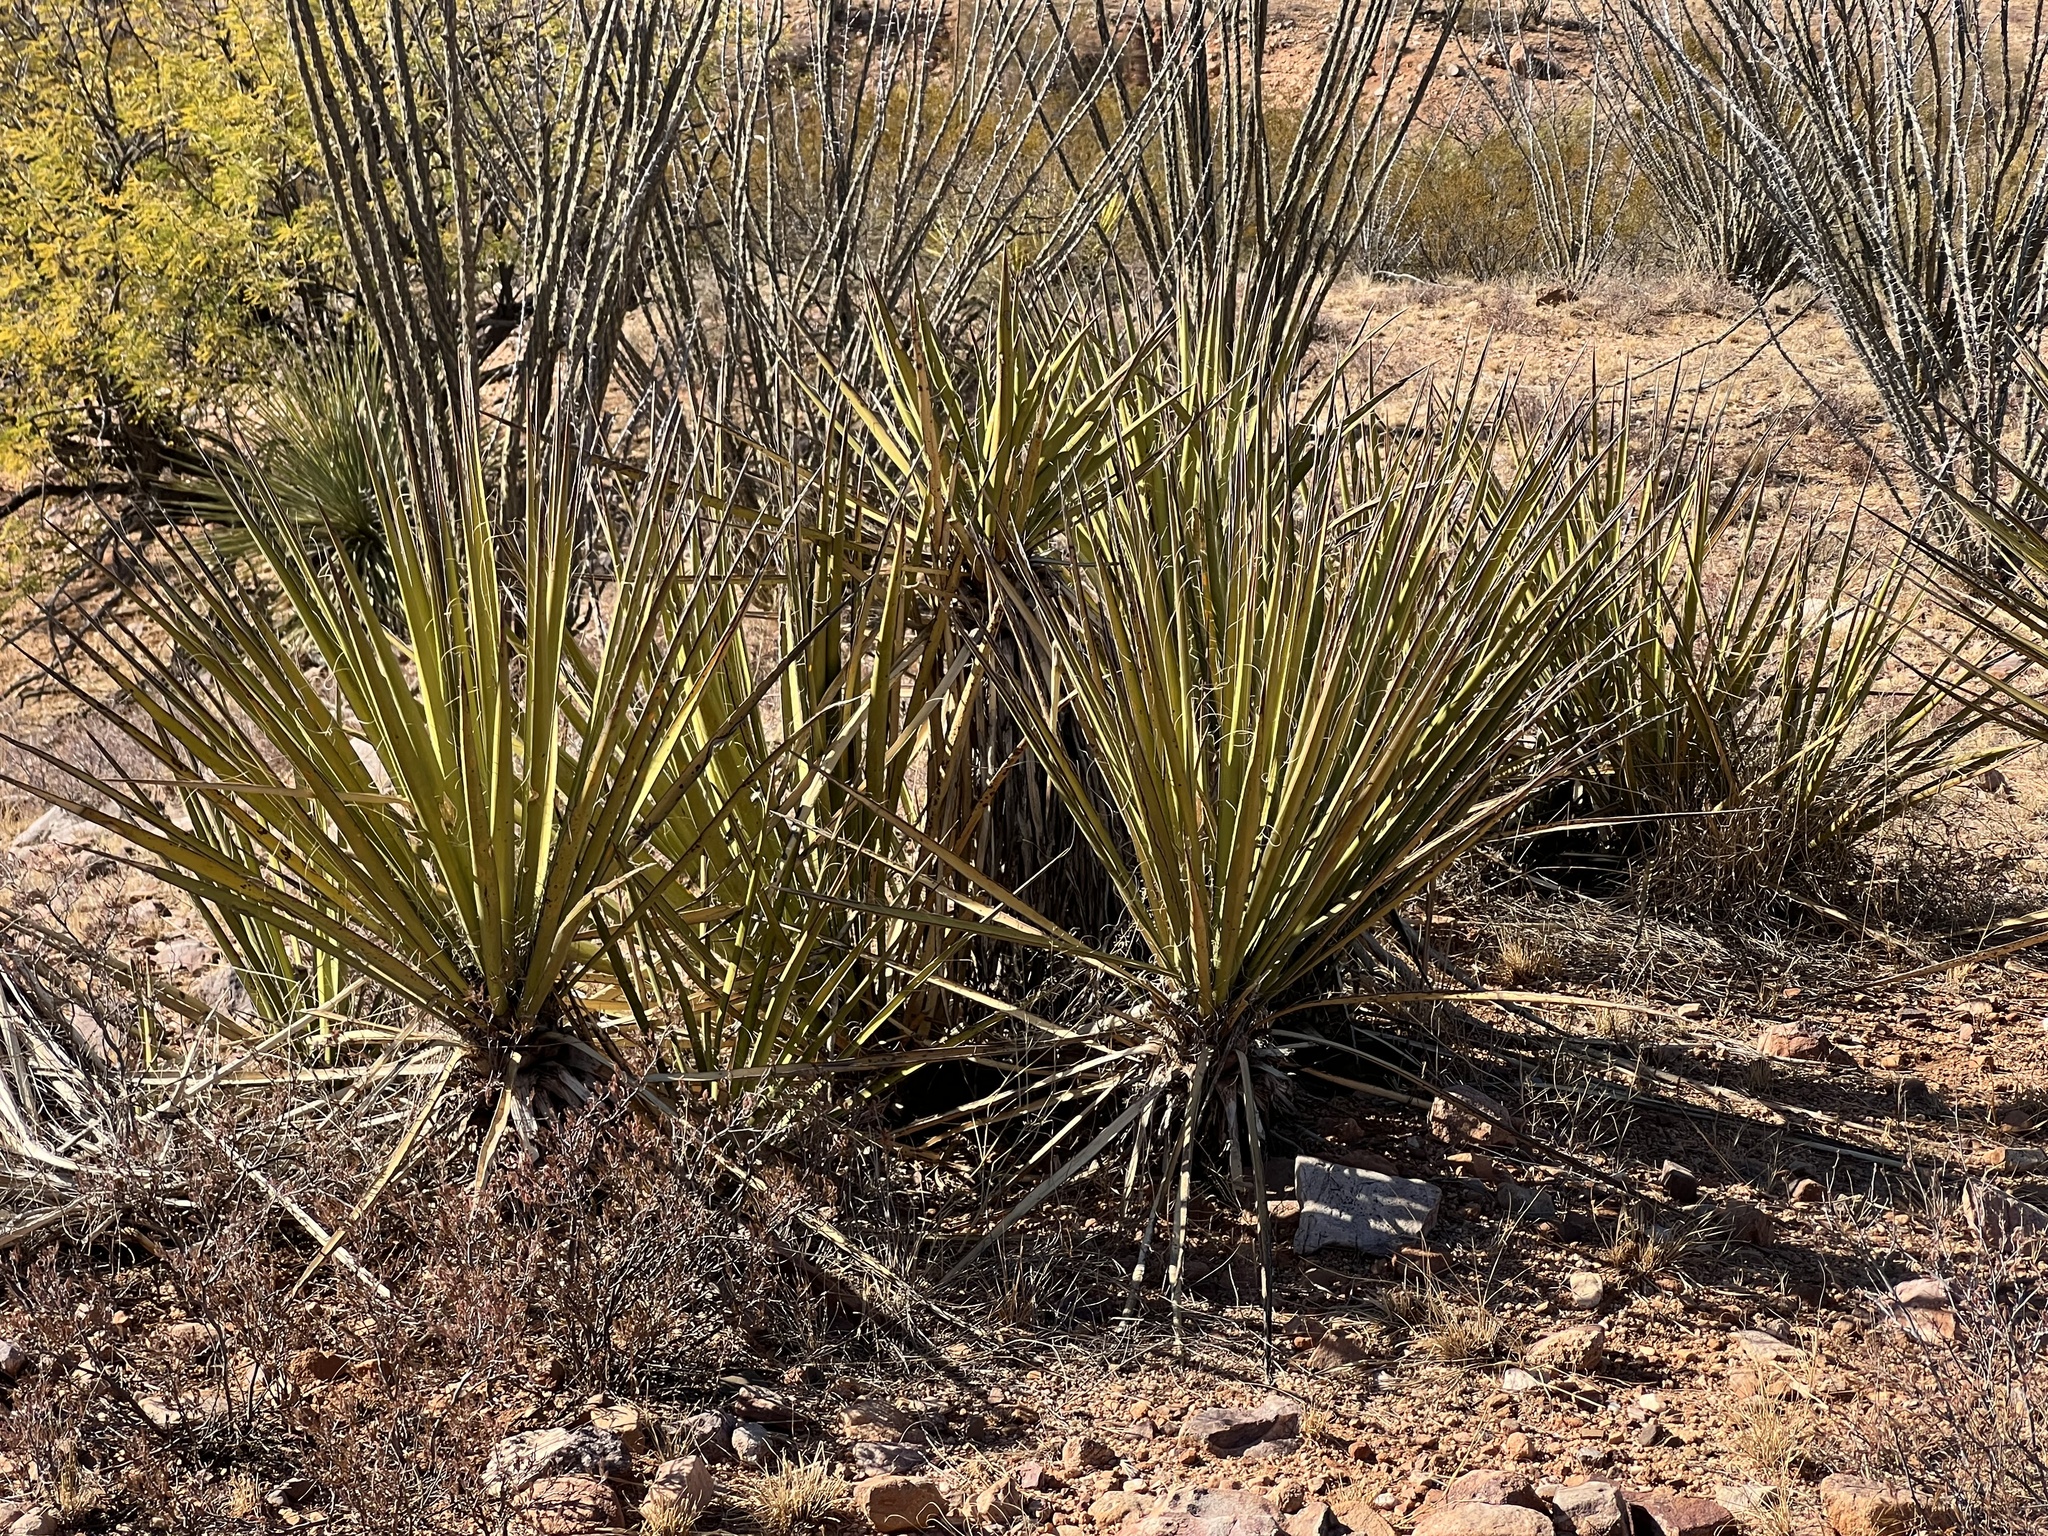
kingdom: Plantae
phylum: Tracheophyta
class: Liliopsida
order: Asparagales
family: Asparagaceae
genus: Yucca
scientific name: Yucca baccata
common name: Banana yucca
